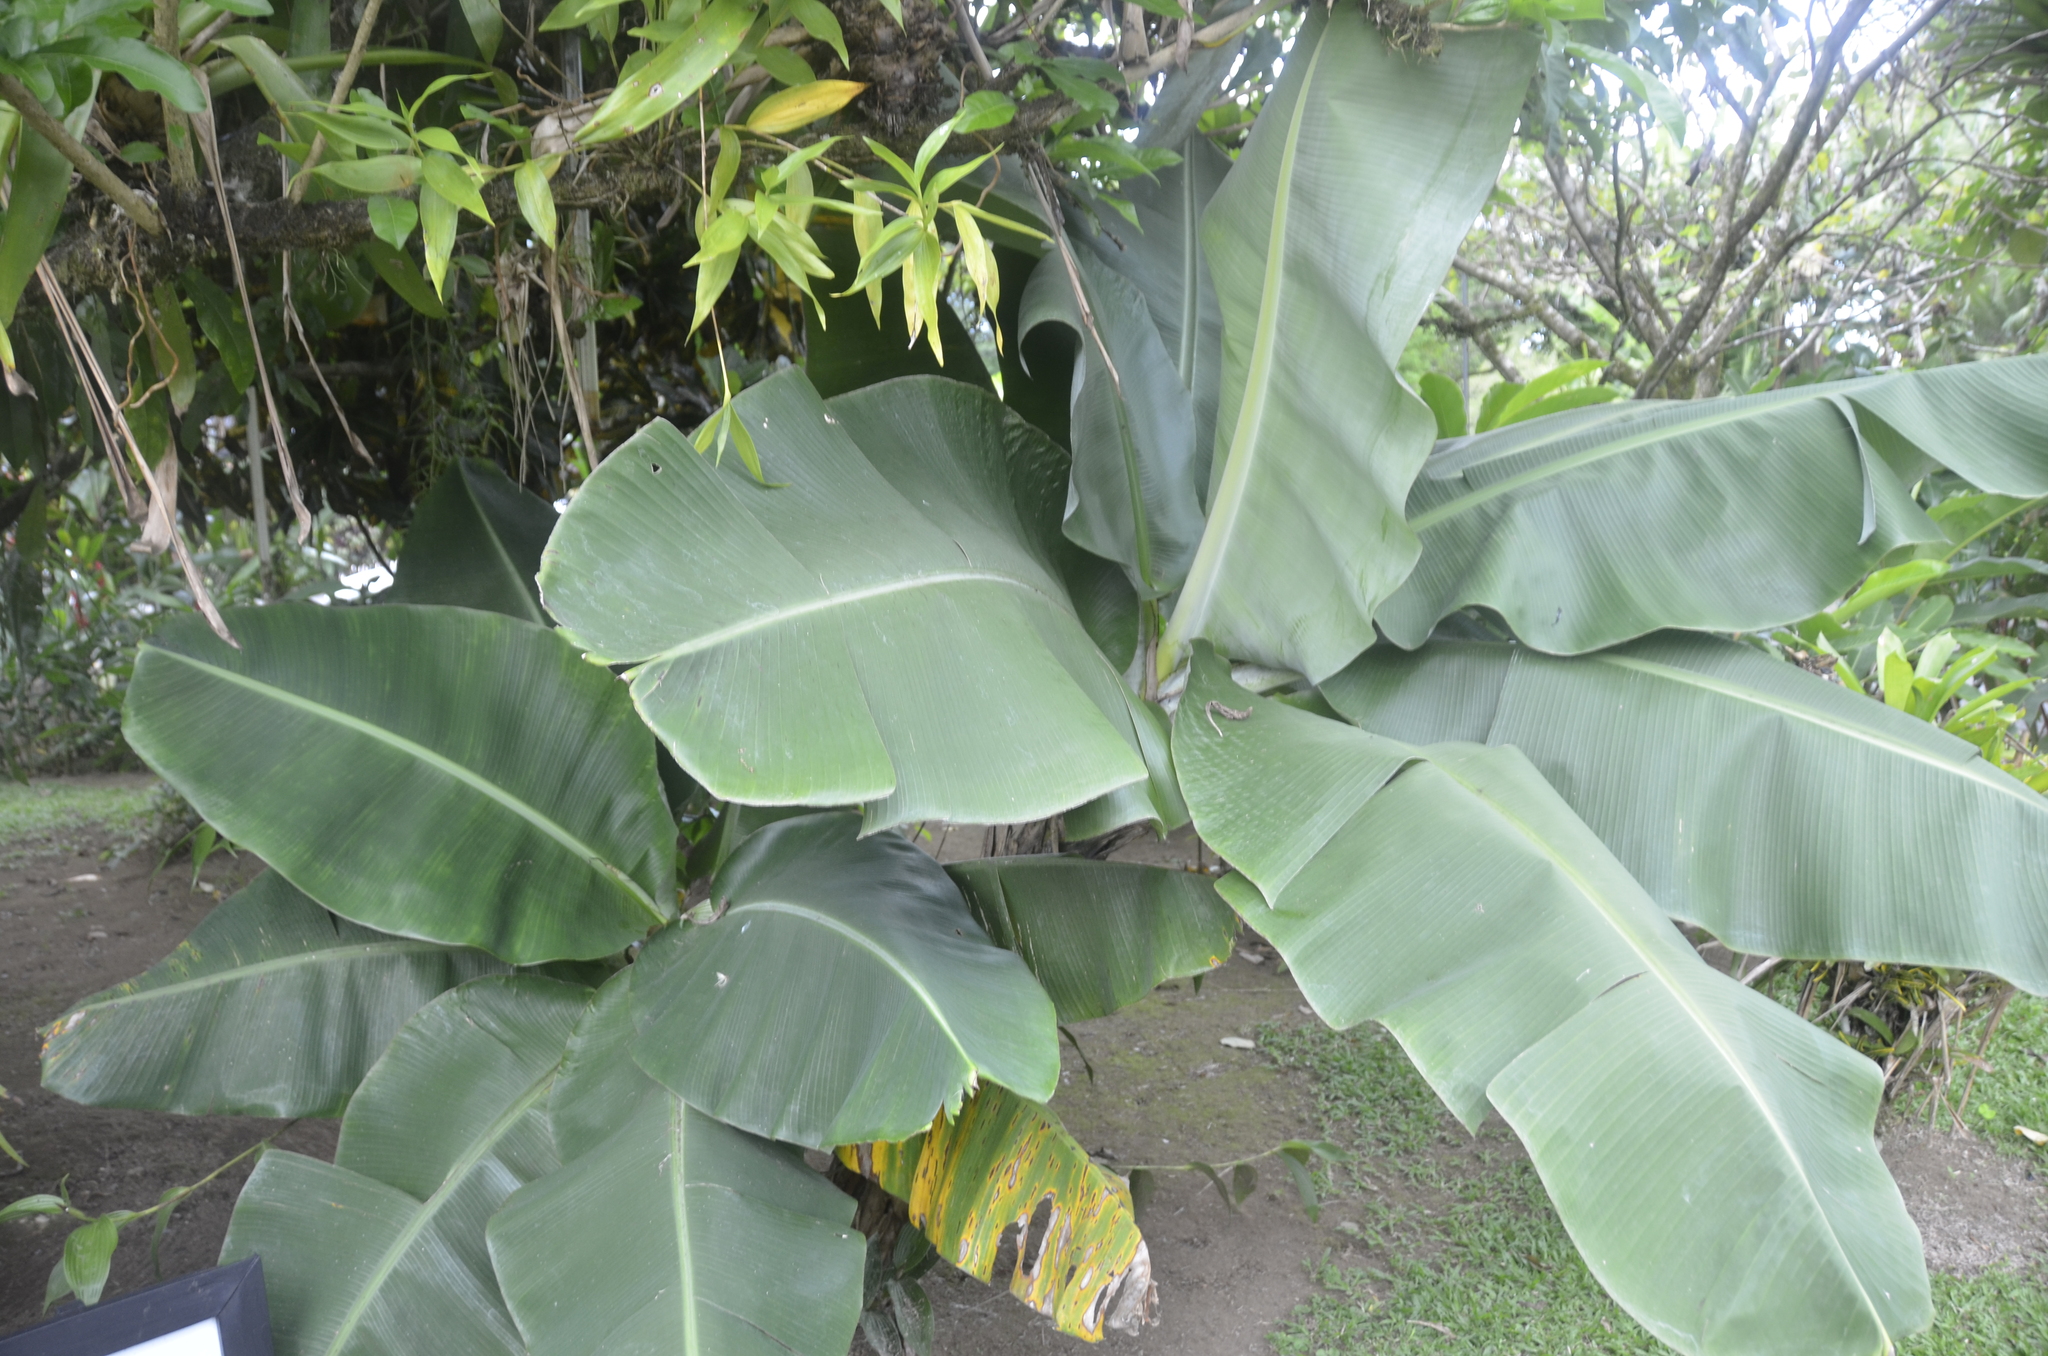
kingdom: Plantae
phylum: Tracheophyta
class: Liliopsida
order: Zingiberales
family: Musaceae
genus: Musa
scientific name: Musa acuminata
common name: Edible banana
